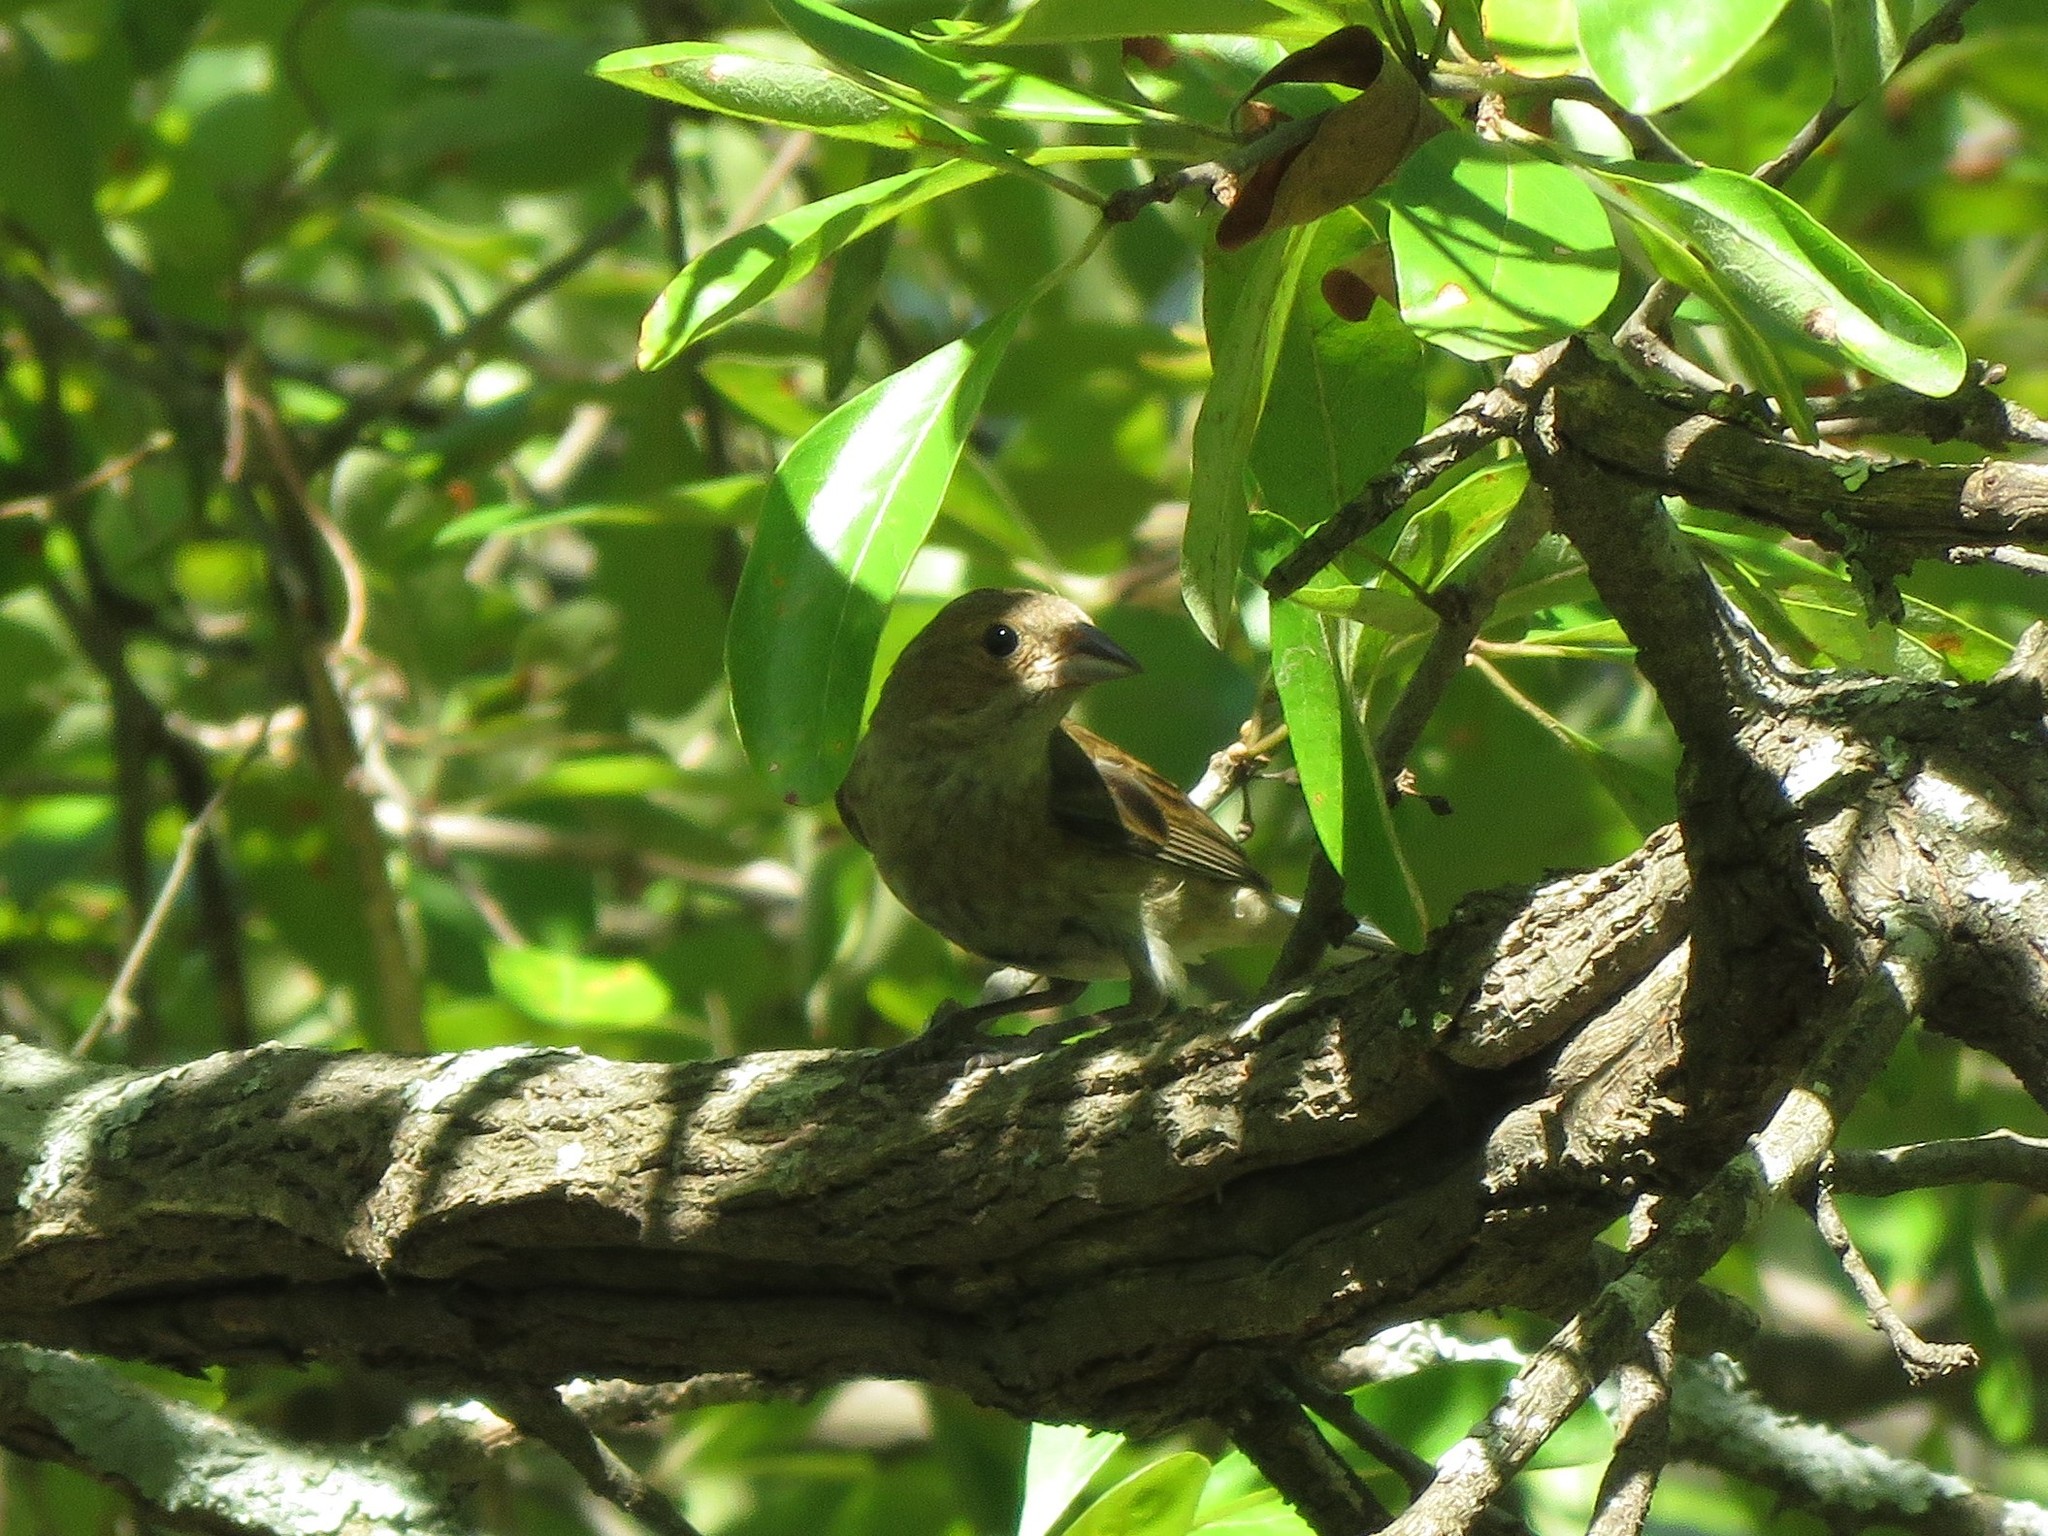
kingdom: Animalia
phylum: Chordata
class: Aves
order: Passeriformes
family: Cardinalidae
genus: Passerina
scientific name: Passerina cyanea
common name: Indigo bunting
